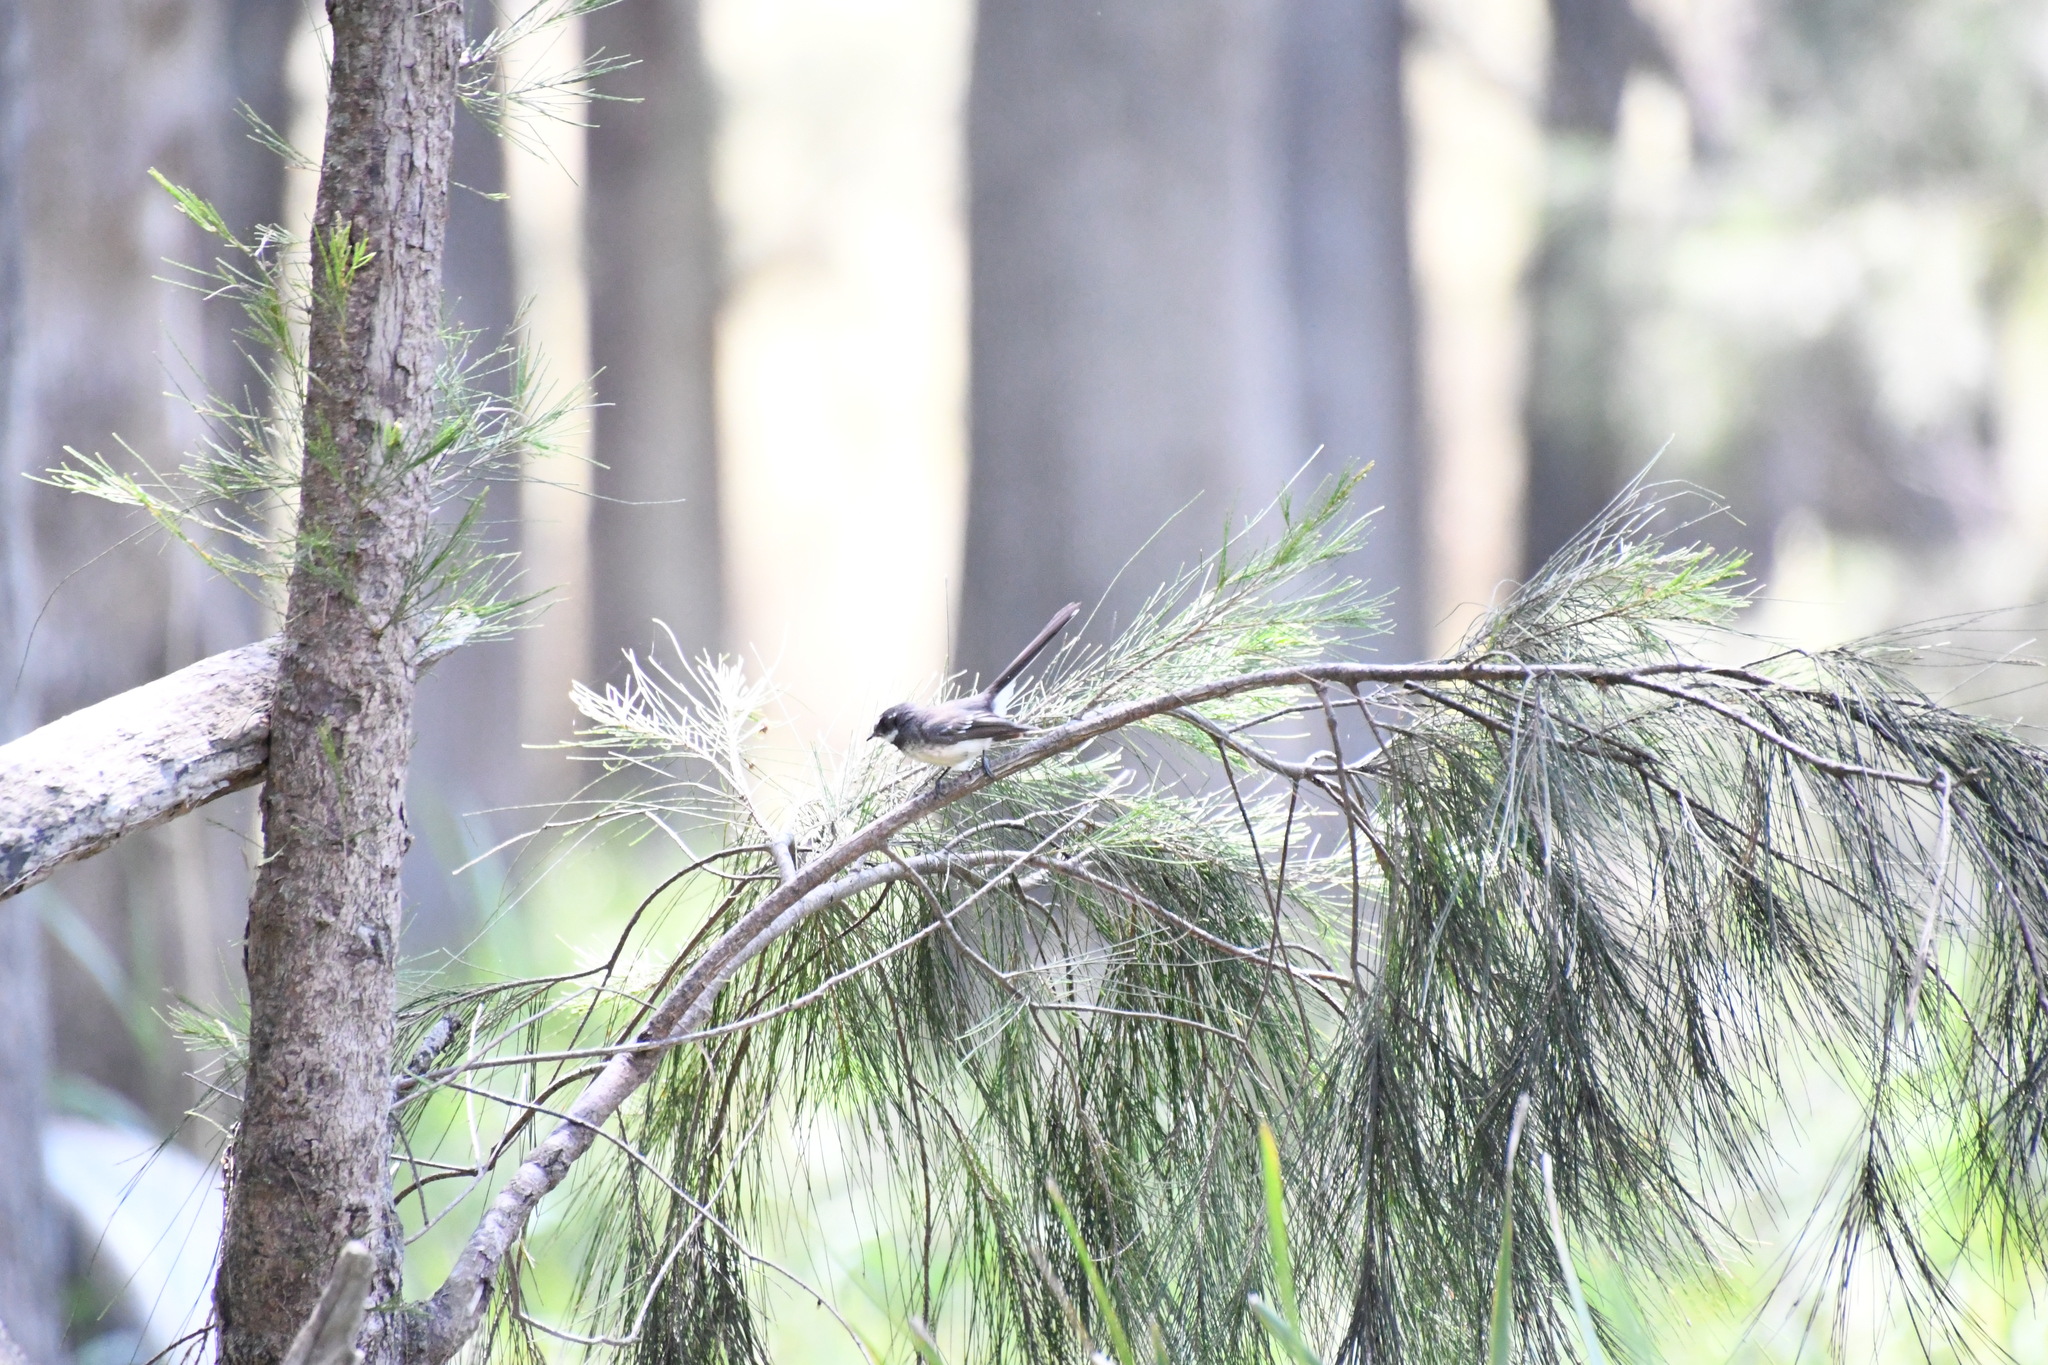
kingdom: Animalia
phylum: Chordata
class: Aves
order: Passeriformes
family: Rhipiduridae
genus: Rhipidura
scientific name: Rhipidura albiscapa
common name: Grey fantail
